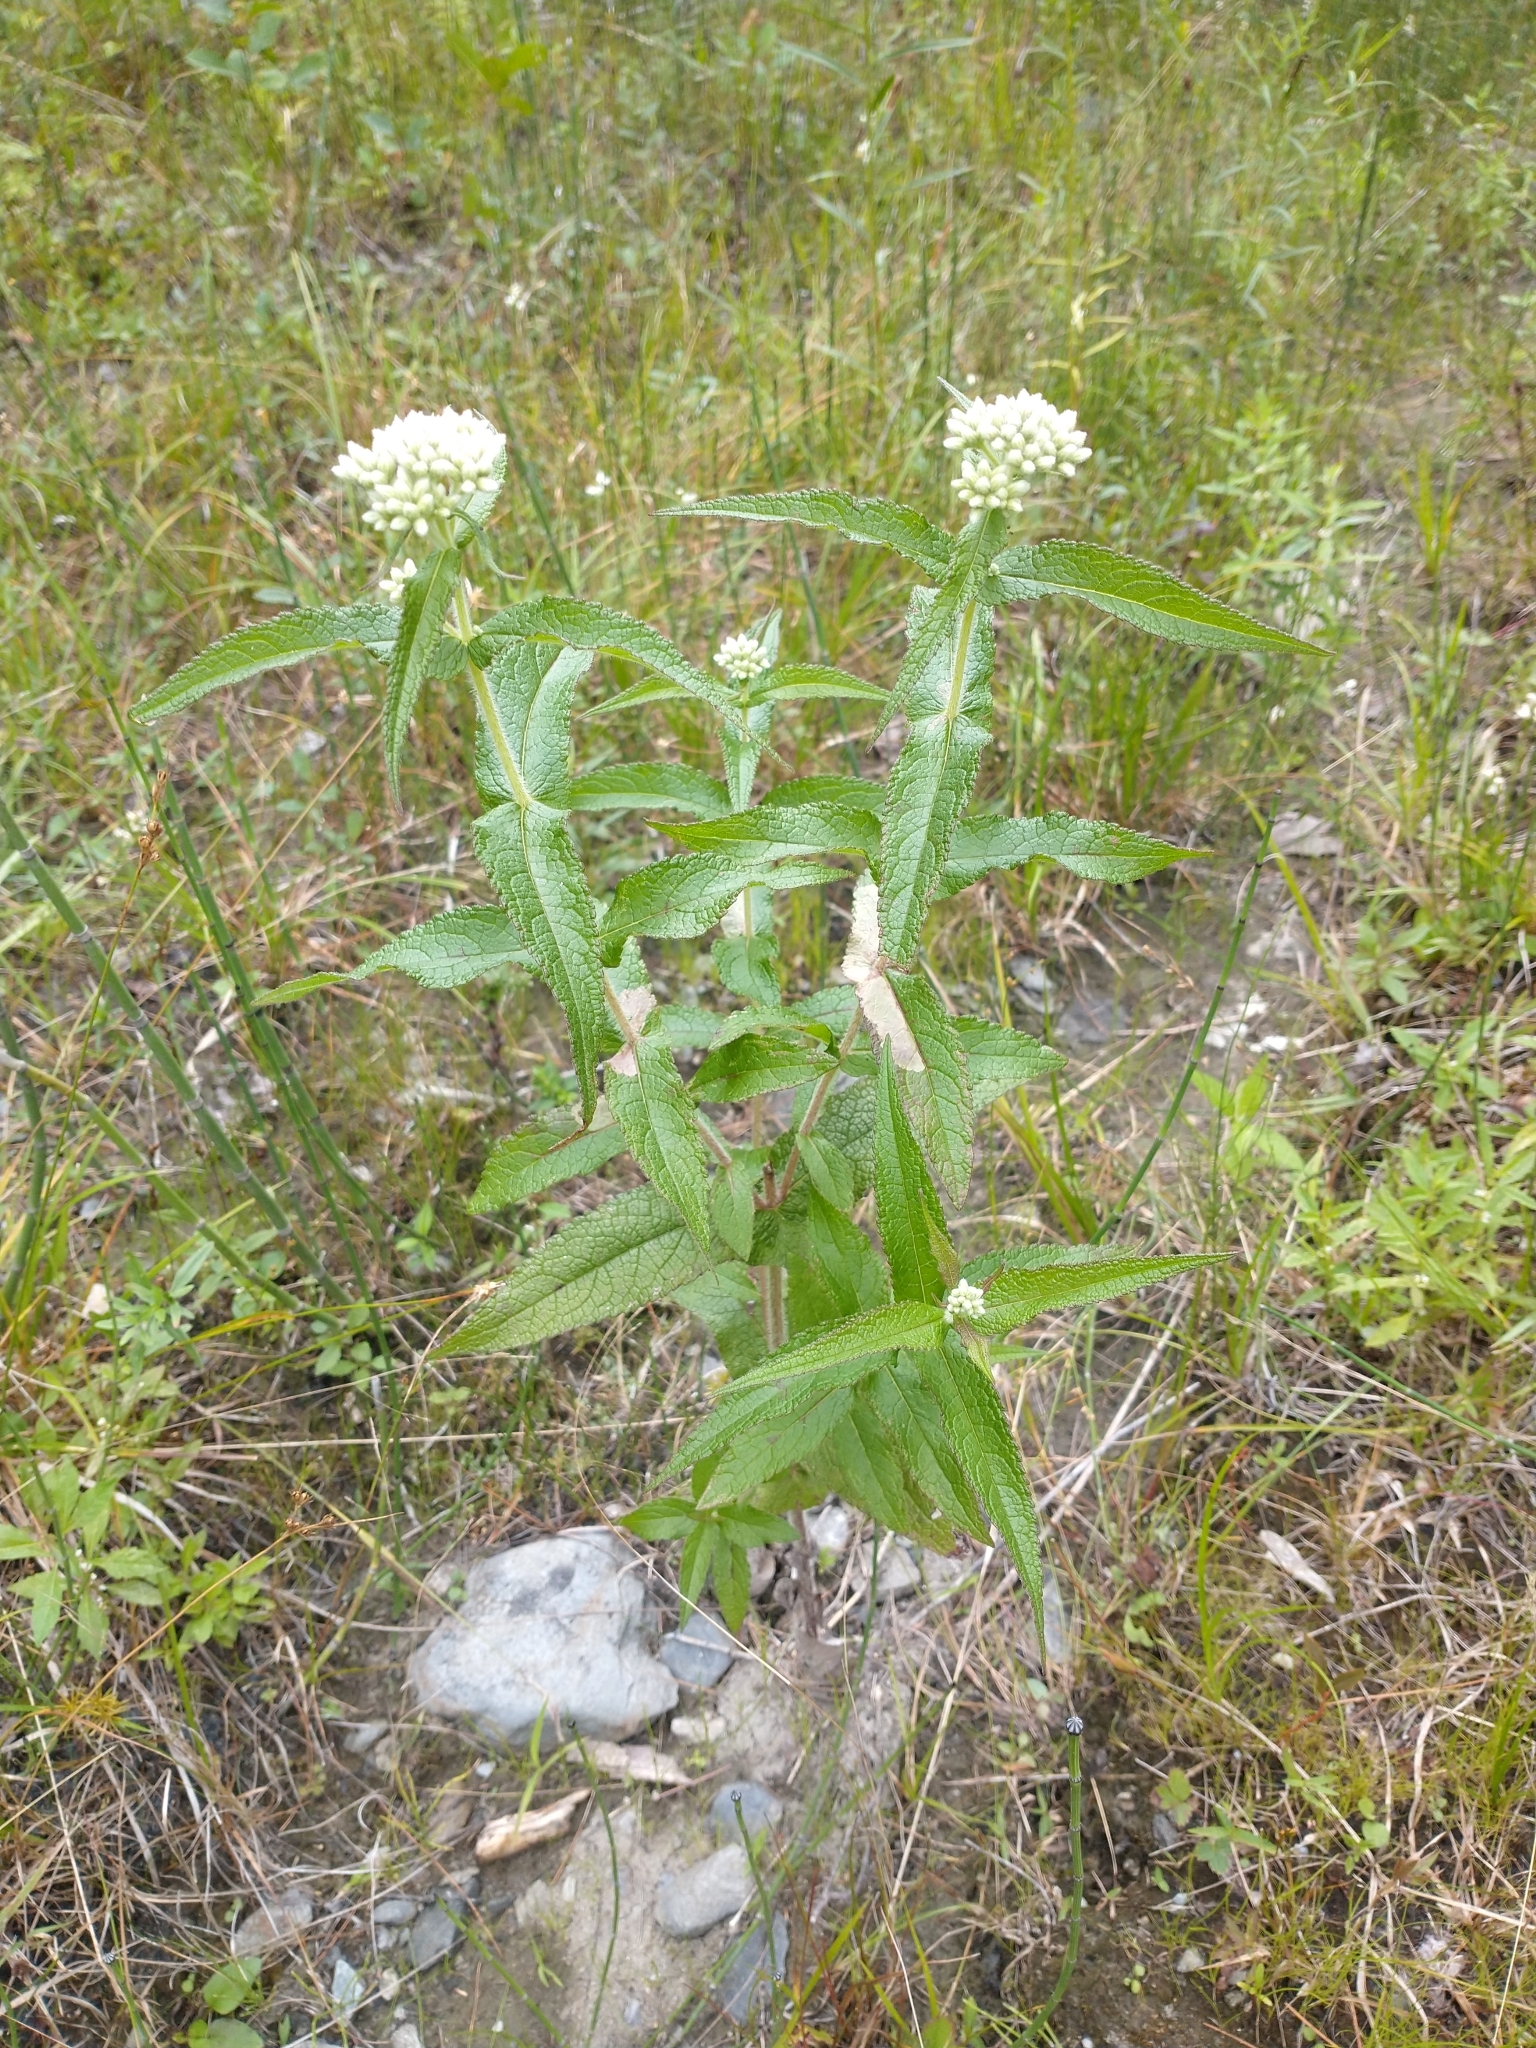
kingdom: Plantae
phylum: Tracheophyta
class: Magnoliopsida
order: Asterales
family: Asteraceae
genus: Eupatorium
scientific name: Eupatorium perfoliatum
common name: Boneset
